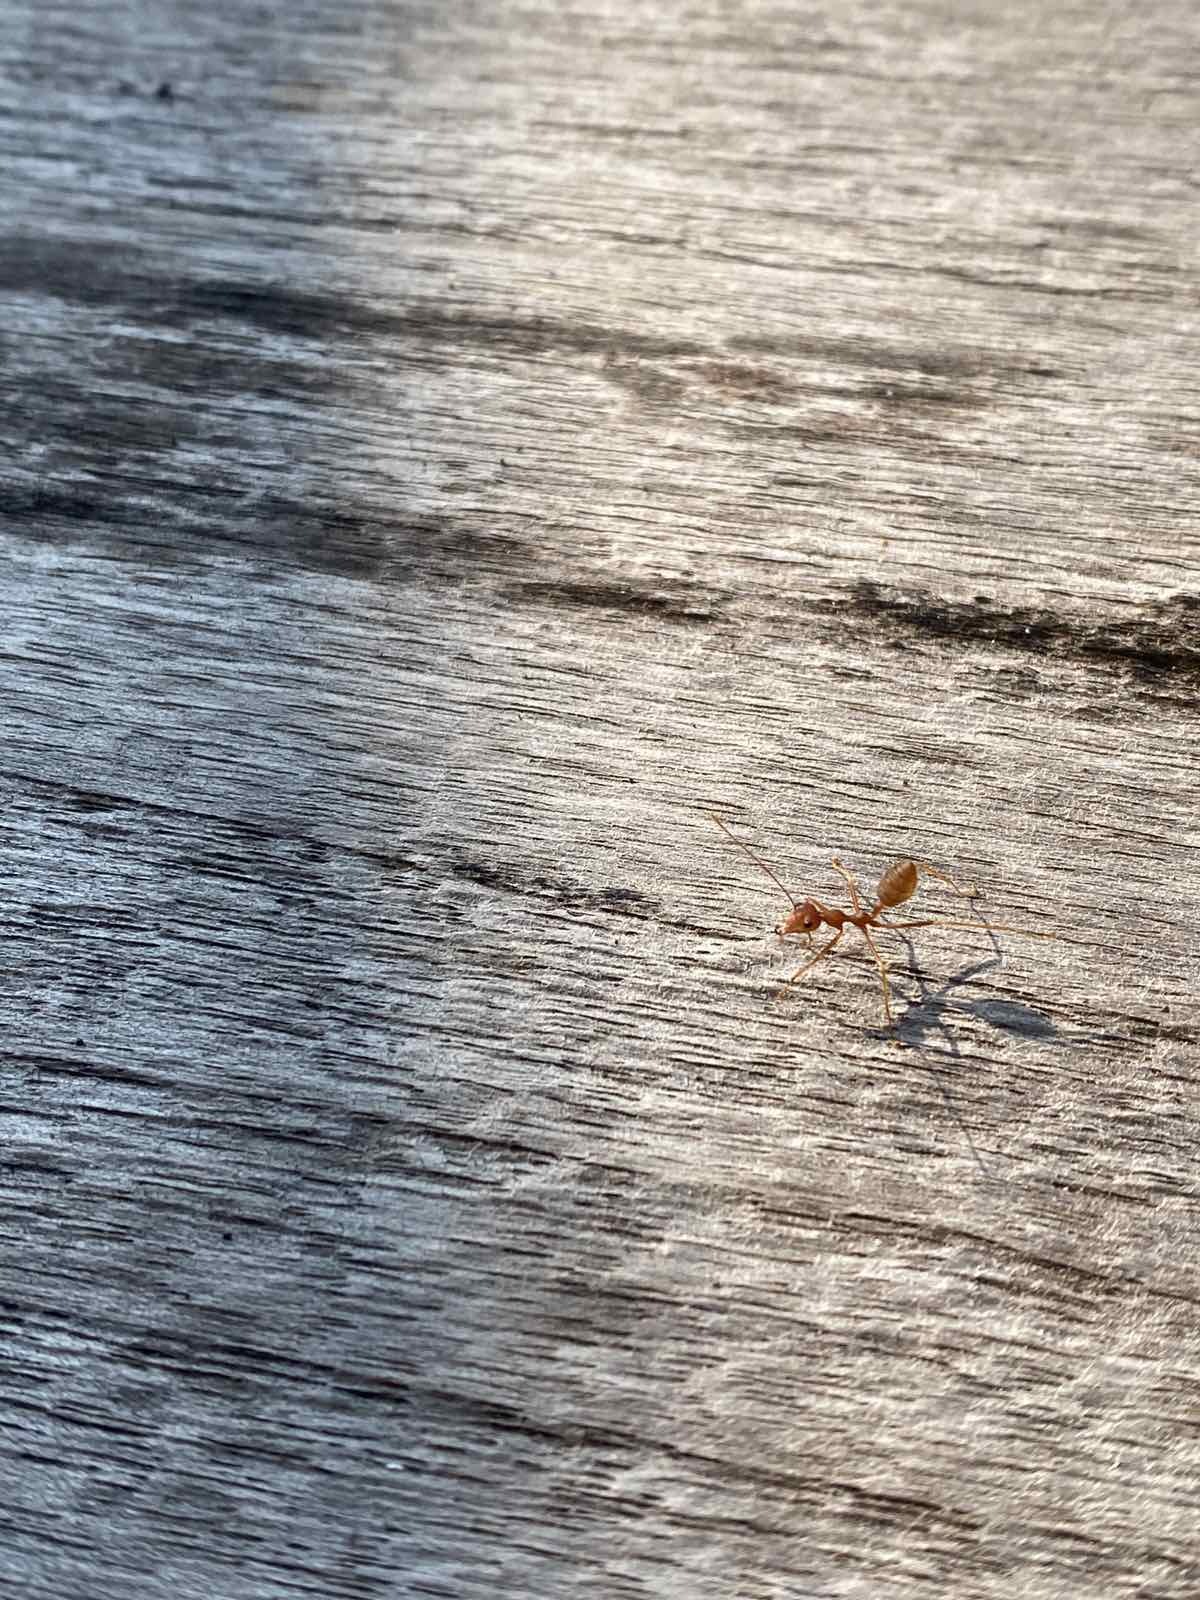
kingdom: Animalia
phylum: Arthropoda
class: Insecta
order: Hymenoptera
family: Formicidae
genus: Oecophylla
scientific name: Oecophylla smaragdina
